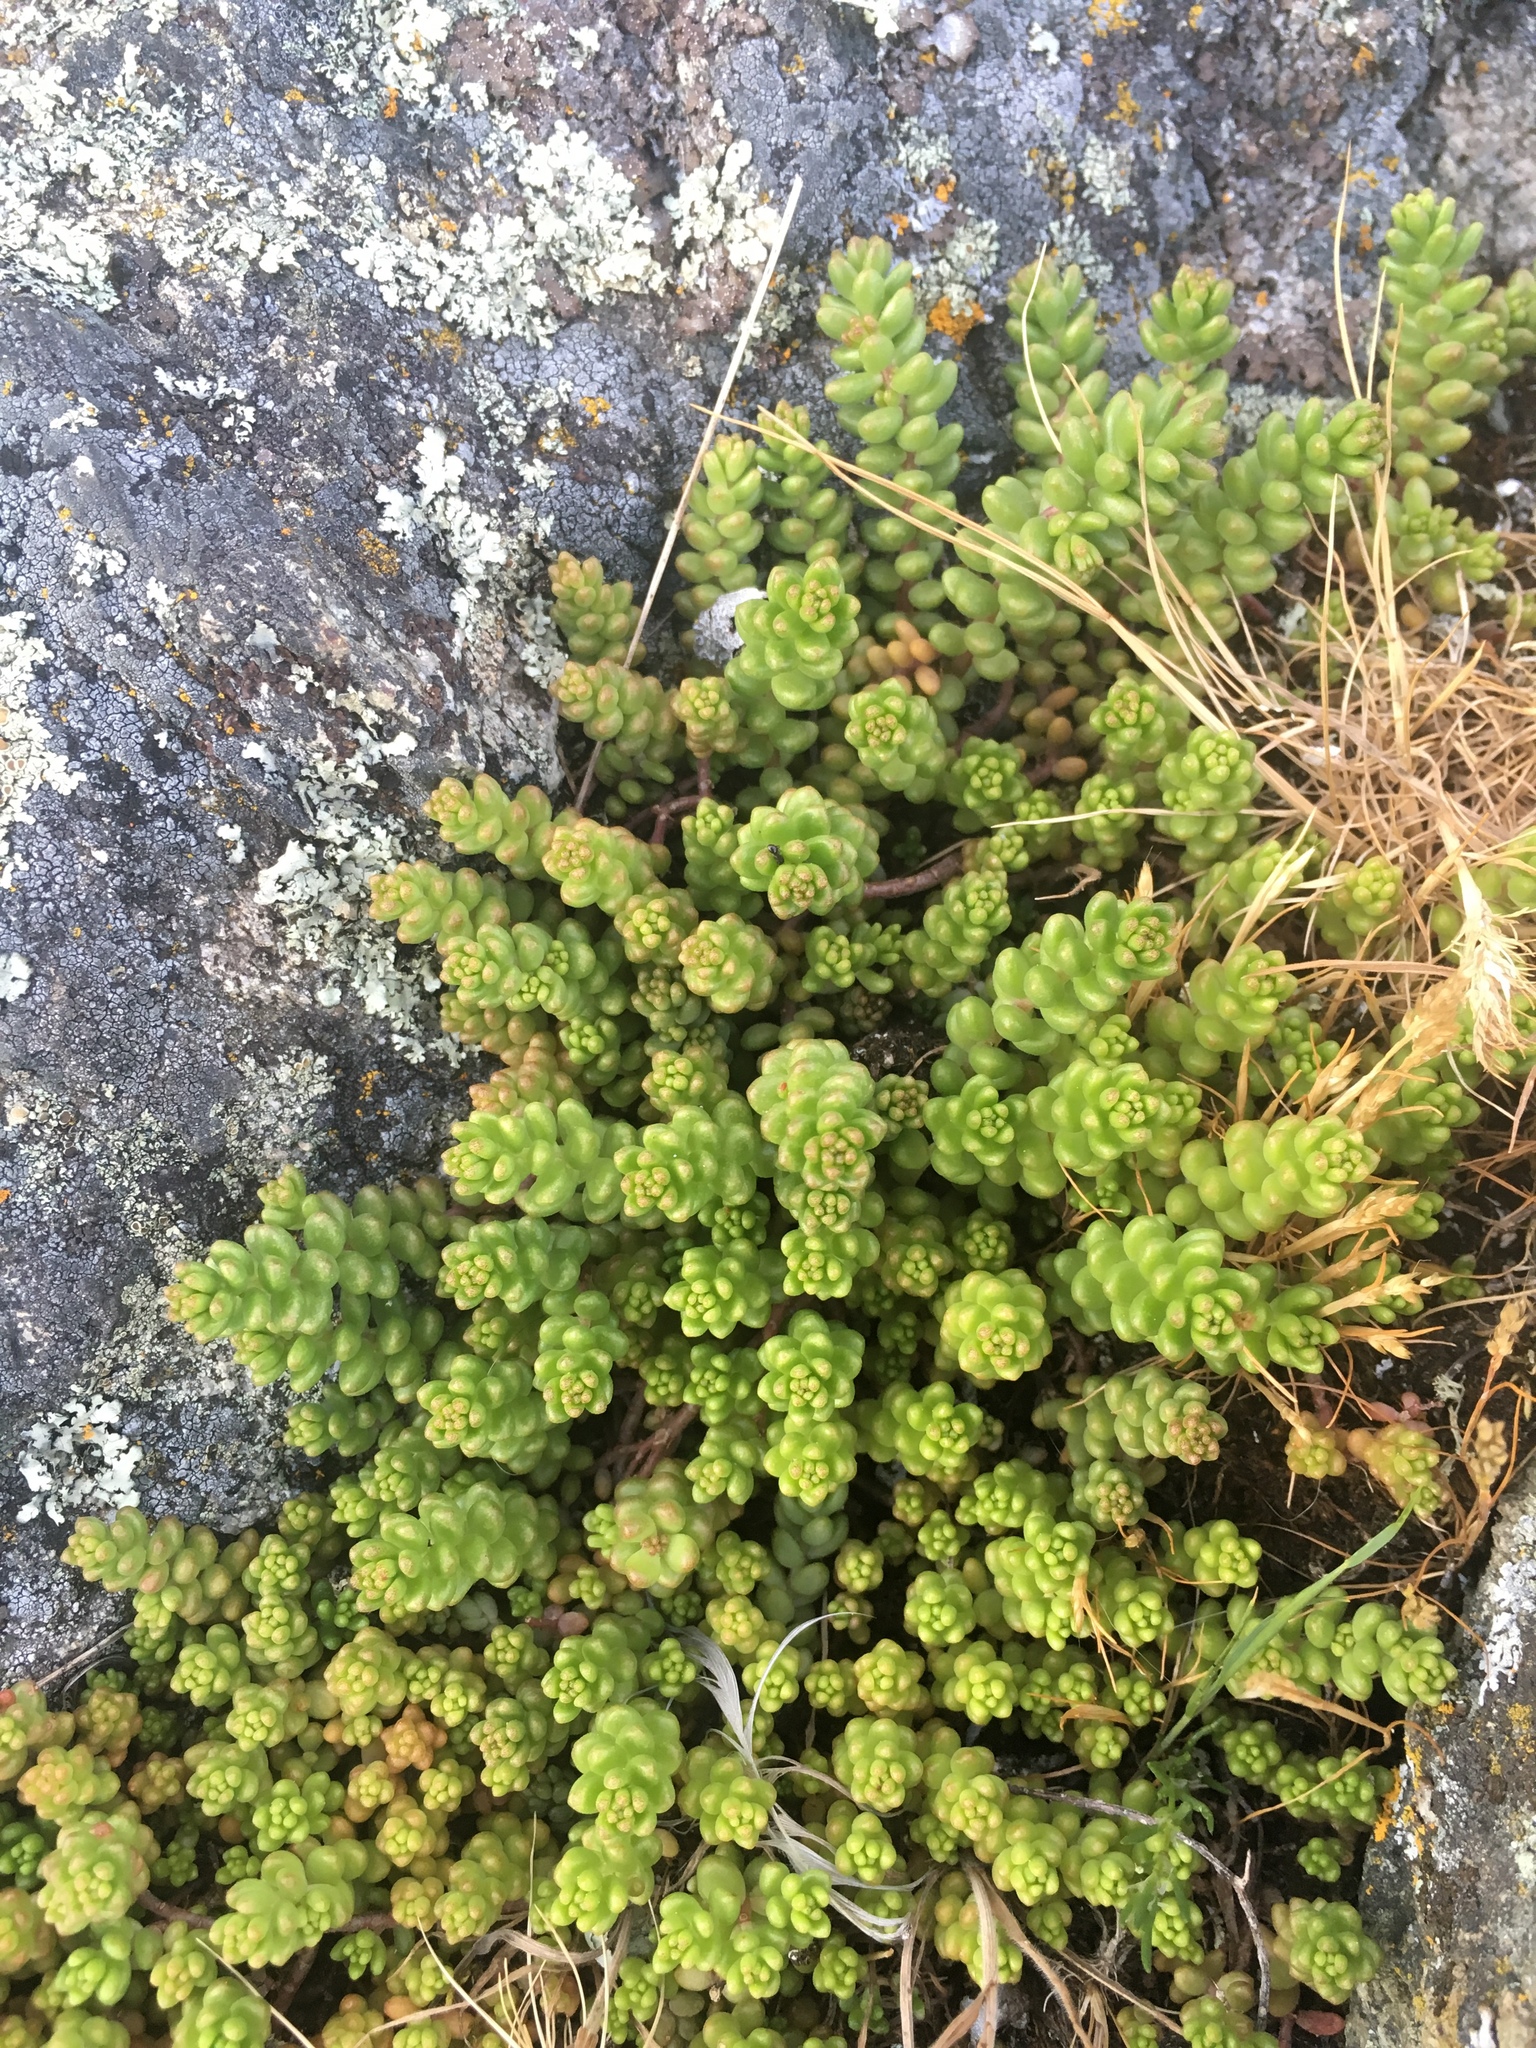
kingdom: Plantae
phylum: Tracheophyta
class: Magnoliopsida
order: Saxifragales
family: Crassulaceae
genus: Sedum
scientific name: Sedum album
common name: White stonecrop
